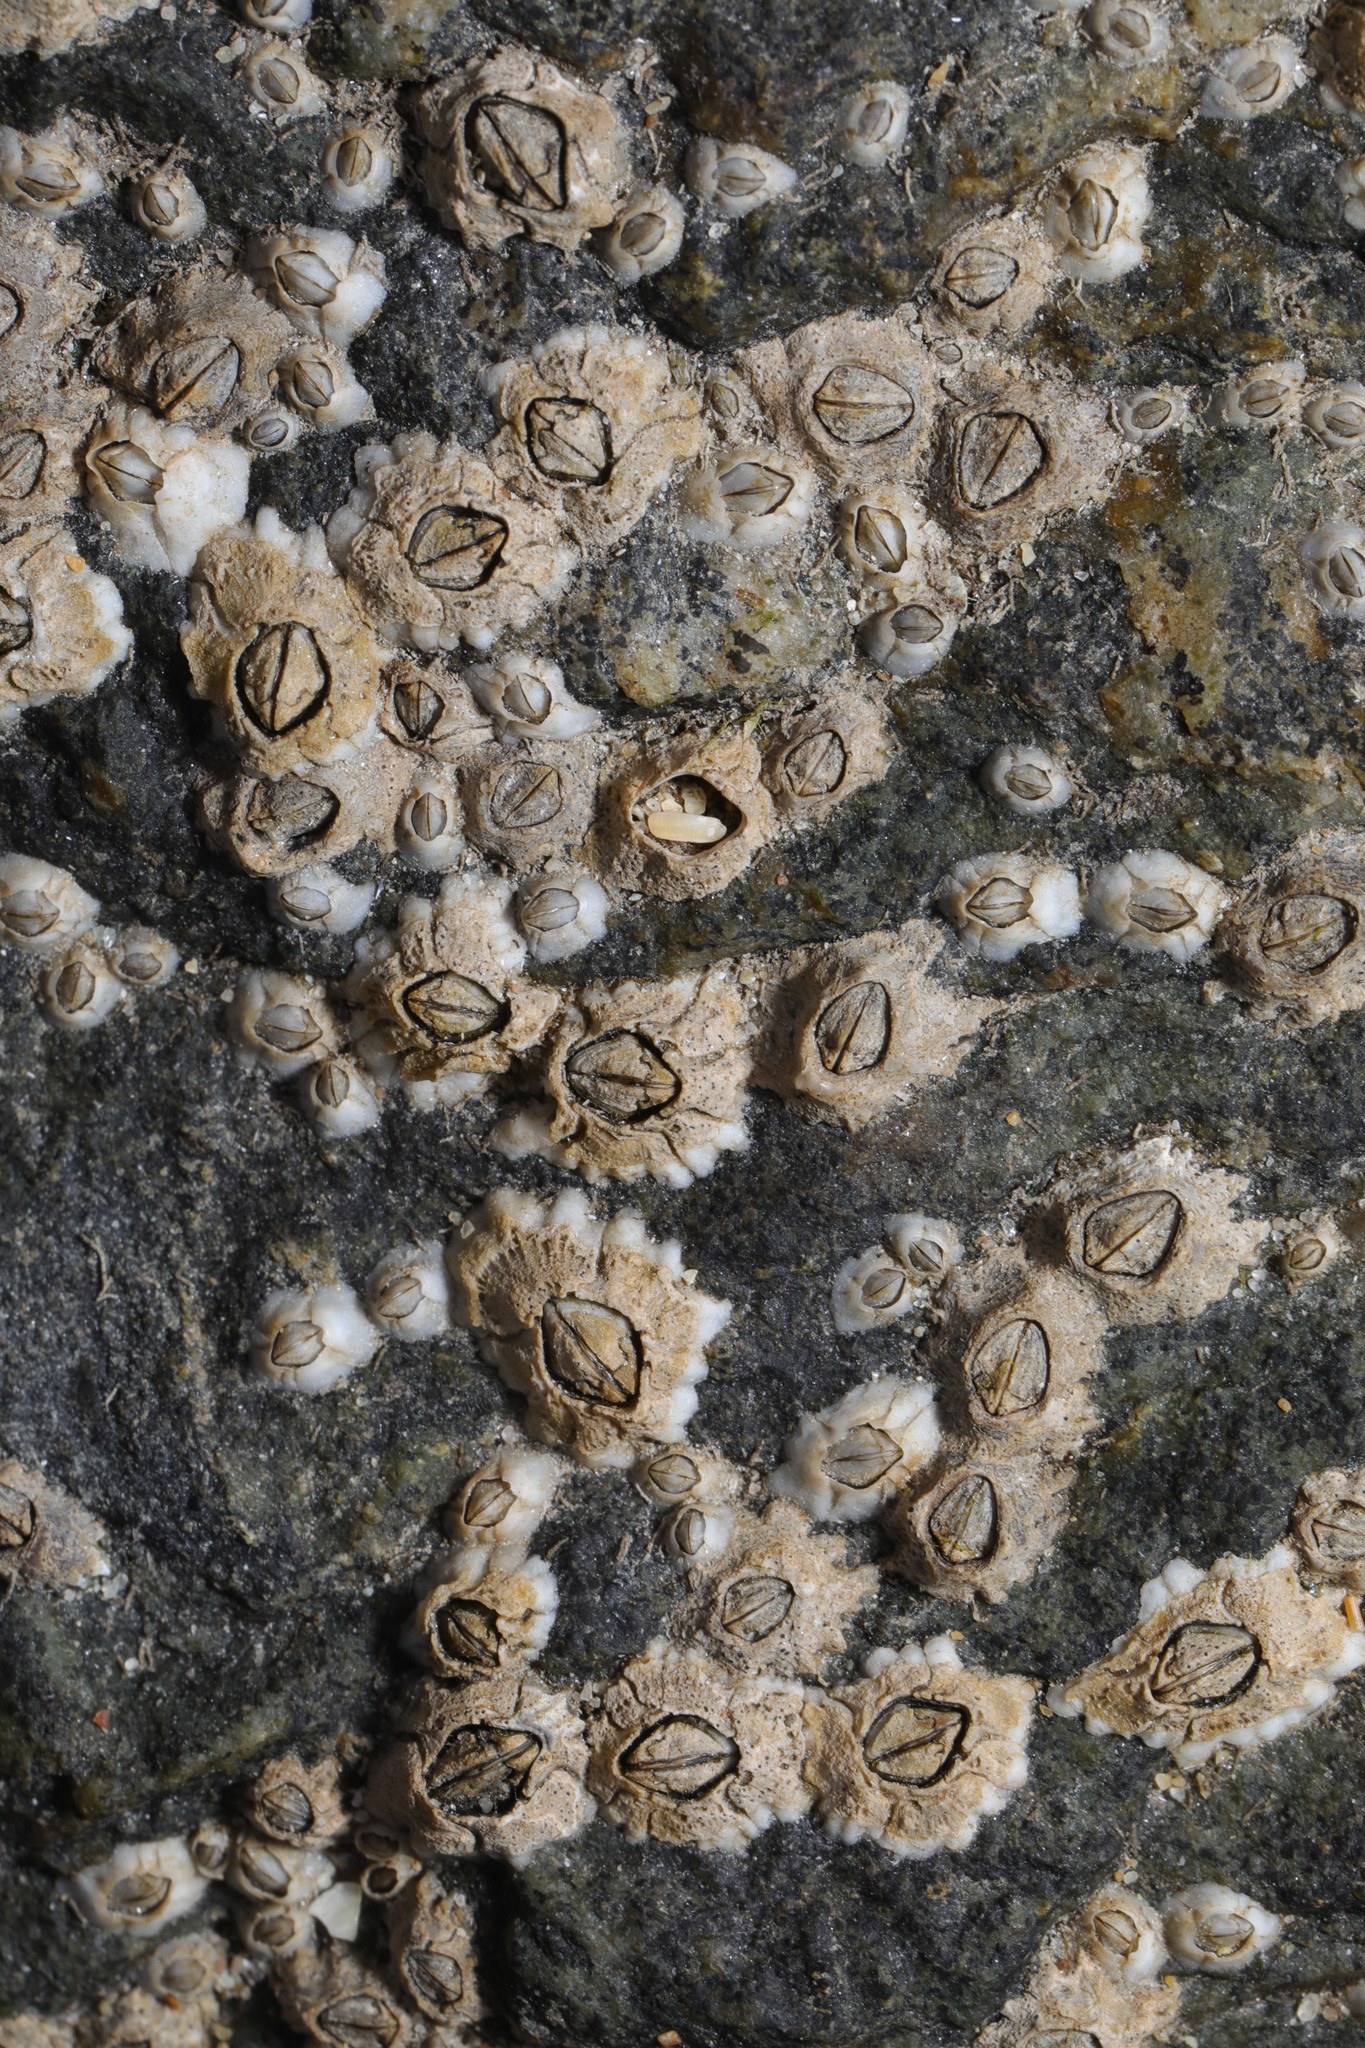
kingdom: Animalia
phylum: Arthropoda
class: Maxillopoda
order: Sessilia
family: Archaeobalanidae
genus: Semibalanus
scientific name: Semibalanus balanoides
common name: Acorn barnacle
